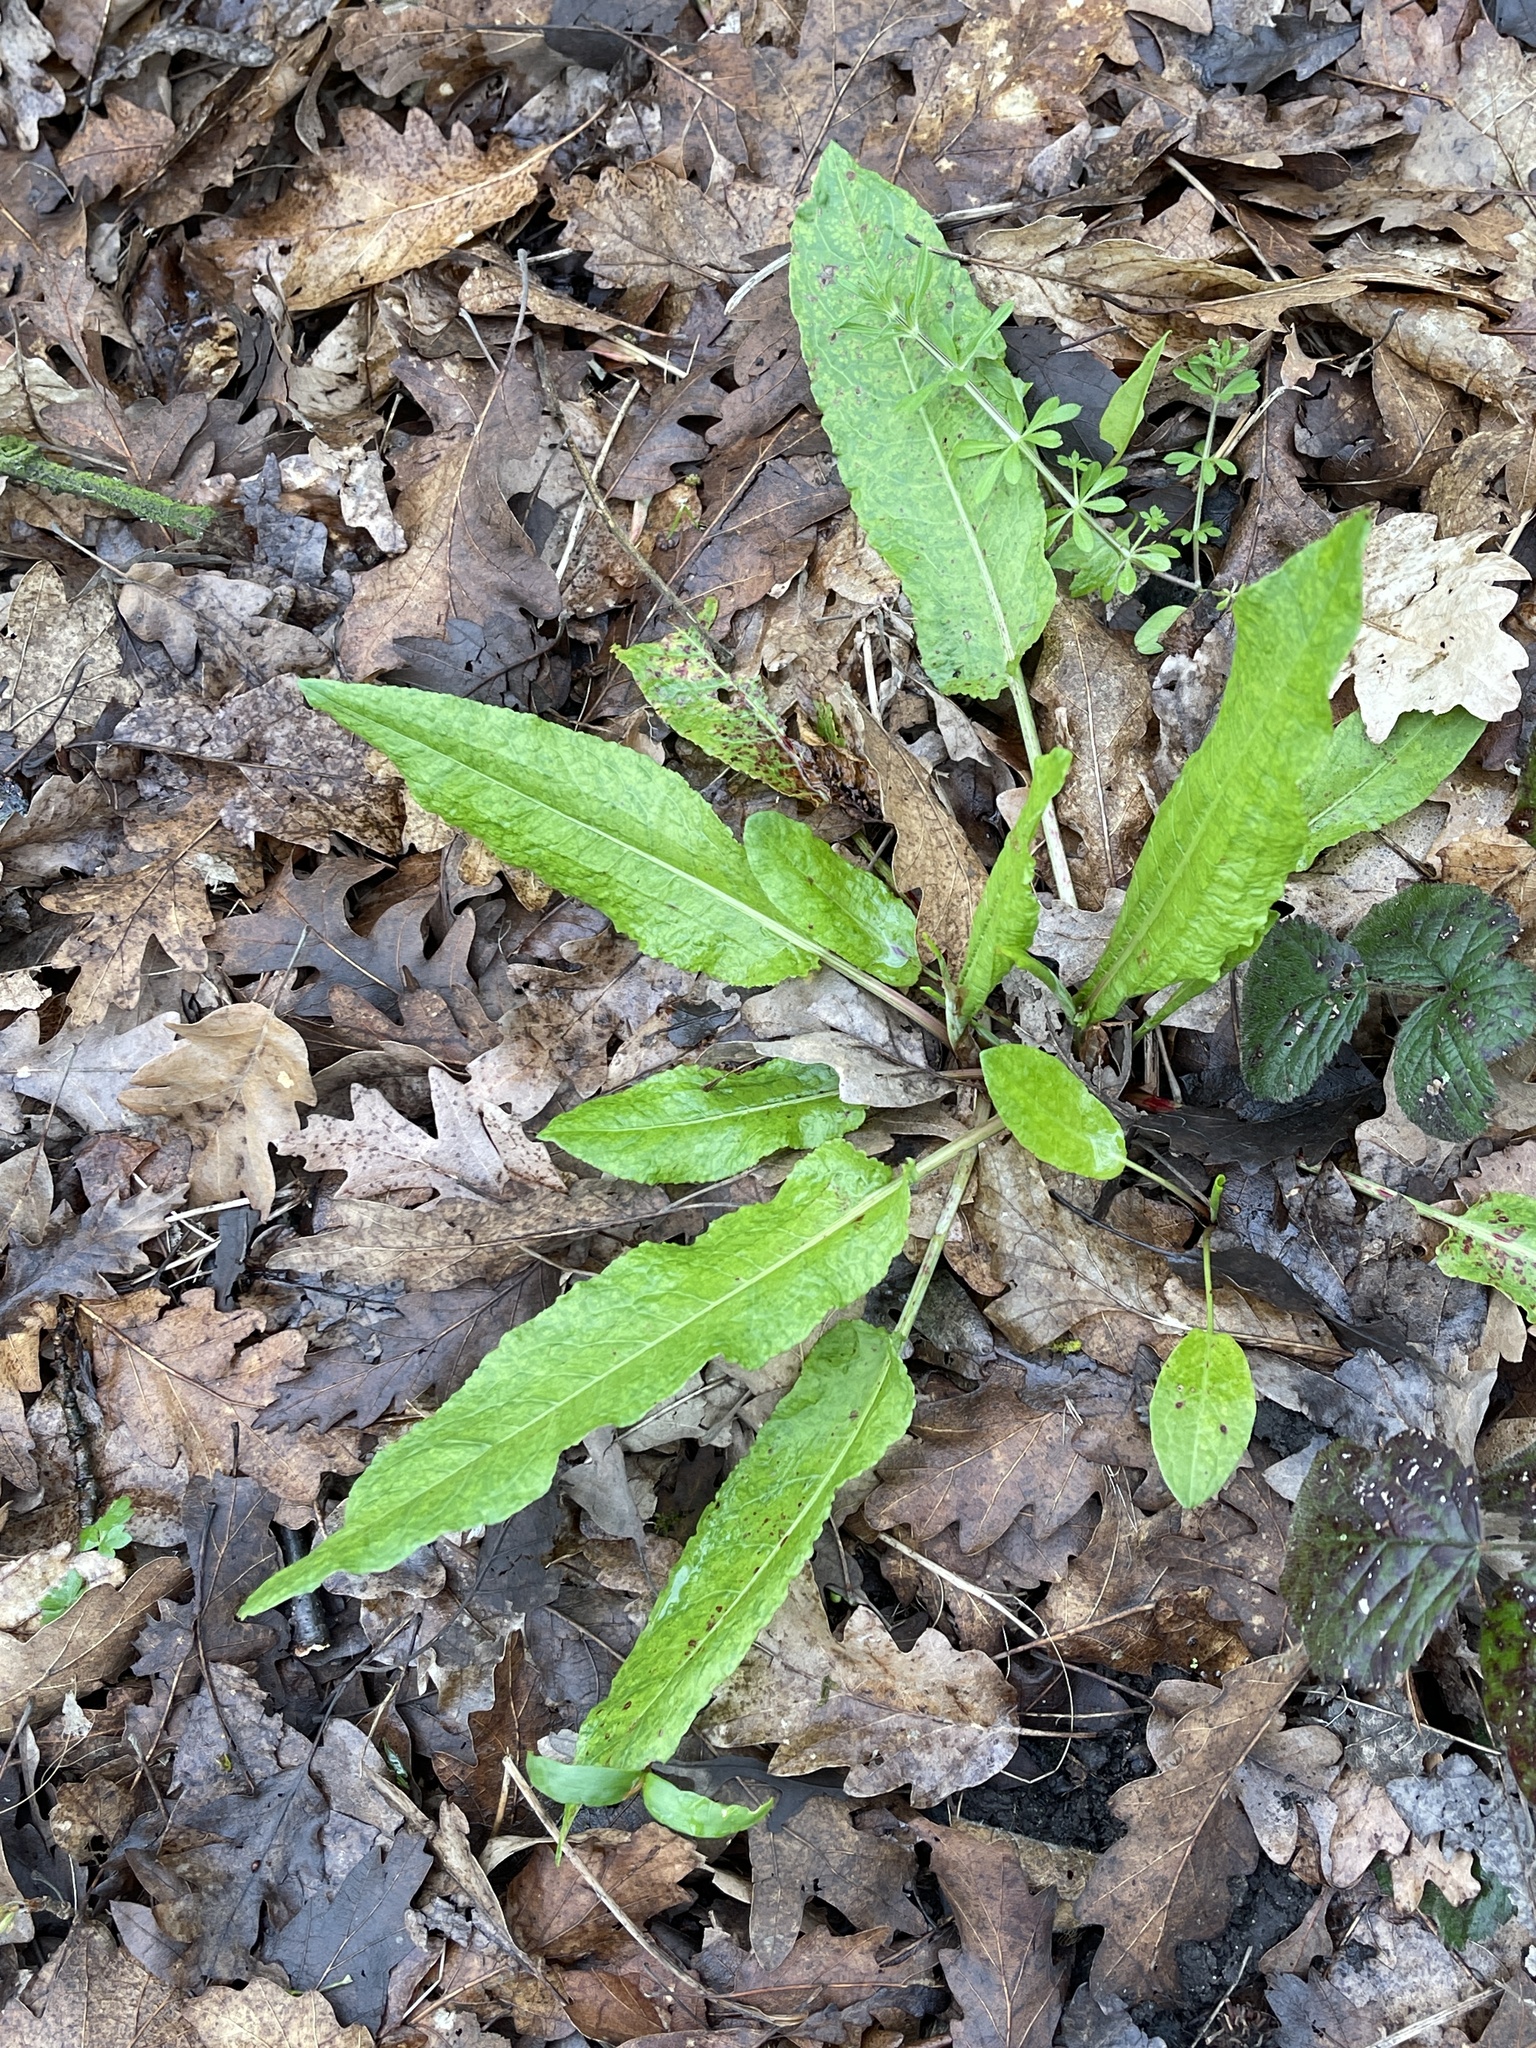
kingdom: Plantae
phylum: Tracheophyta
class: Magnoliopsida
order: Caryophyllales
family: Polygonaceae
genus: Rumex
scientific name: Rumex sanguineus
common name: Wood dock
